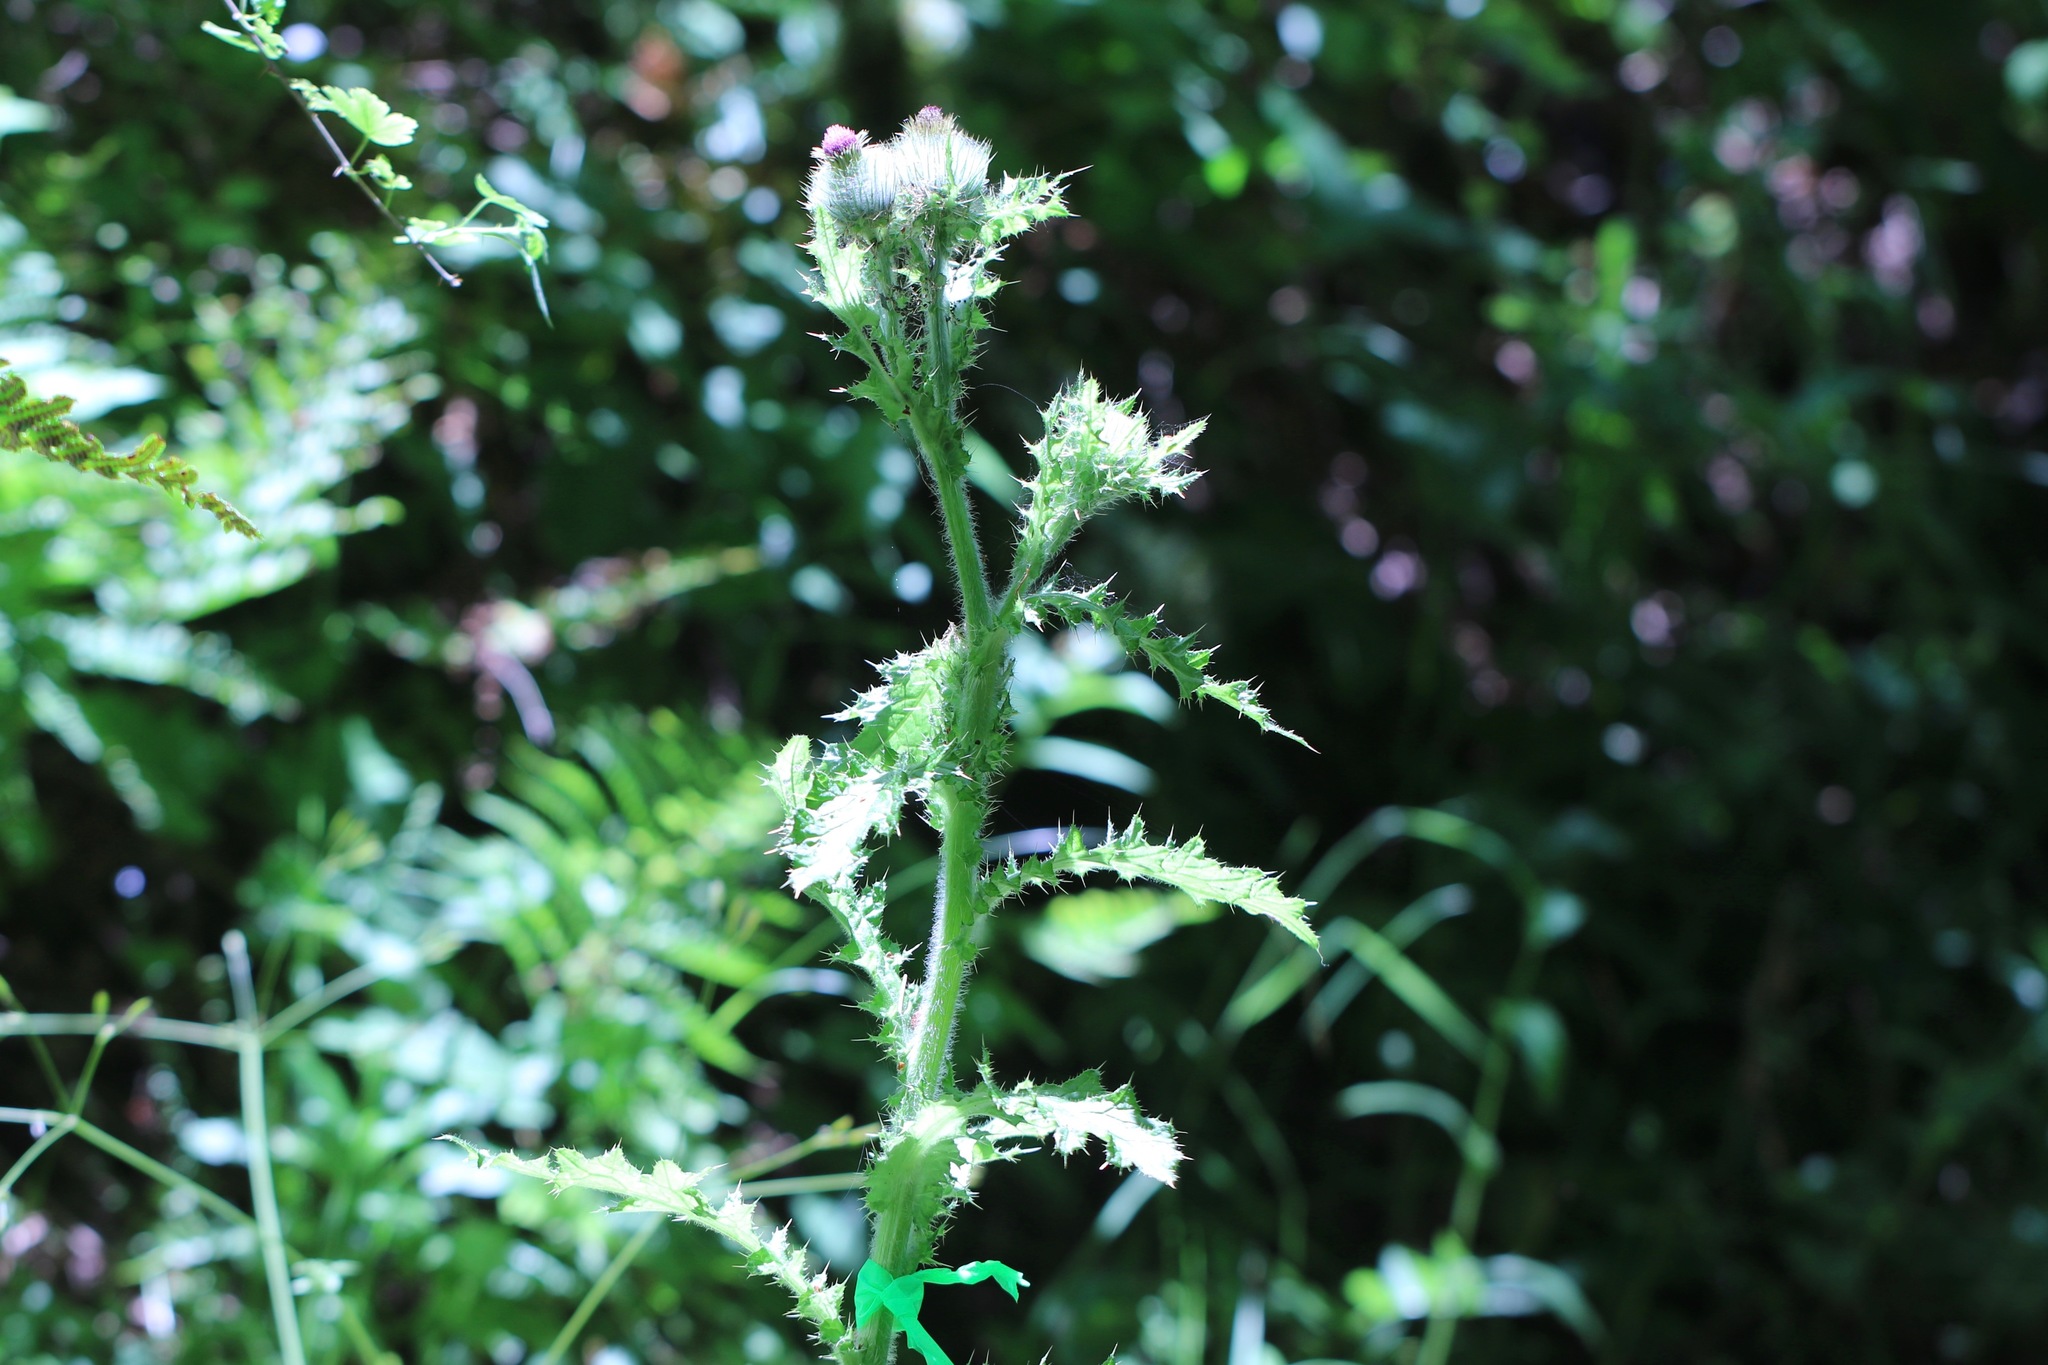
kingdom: Plantae
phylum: Tracheophyta
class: Magnoliopsida
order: Asterales
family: Asteraceae
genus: Cirsium
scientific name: Cirsium brevistylum
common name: Indian thistle
